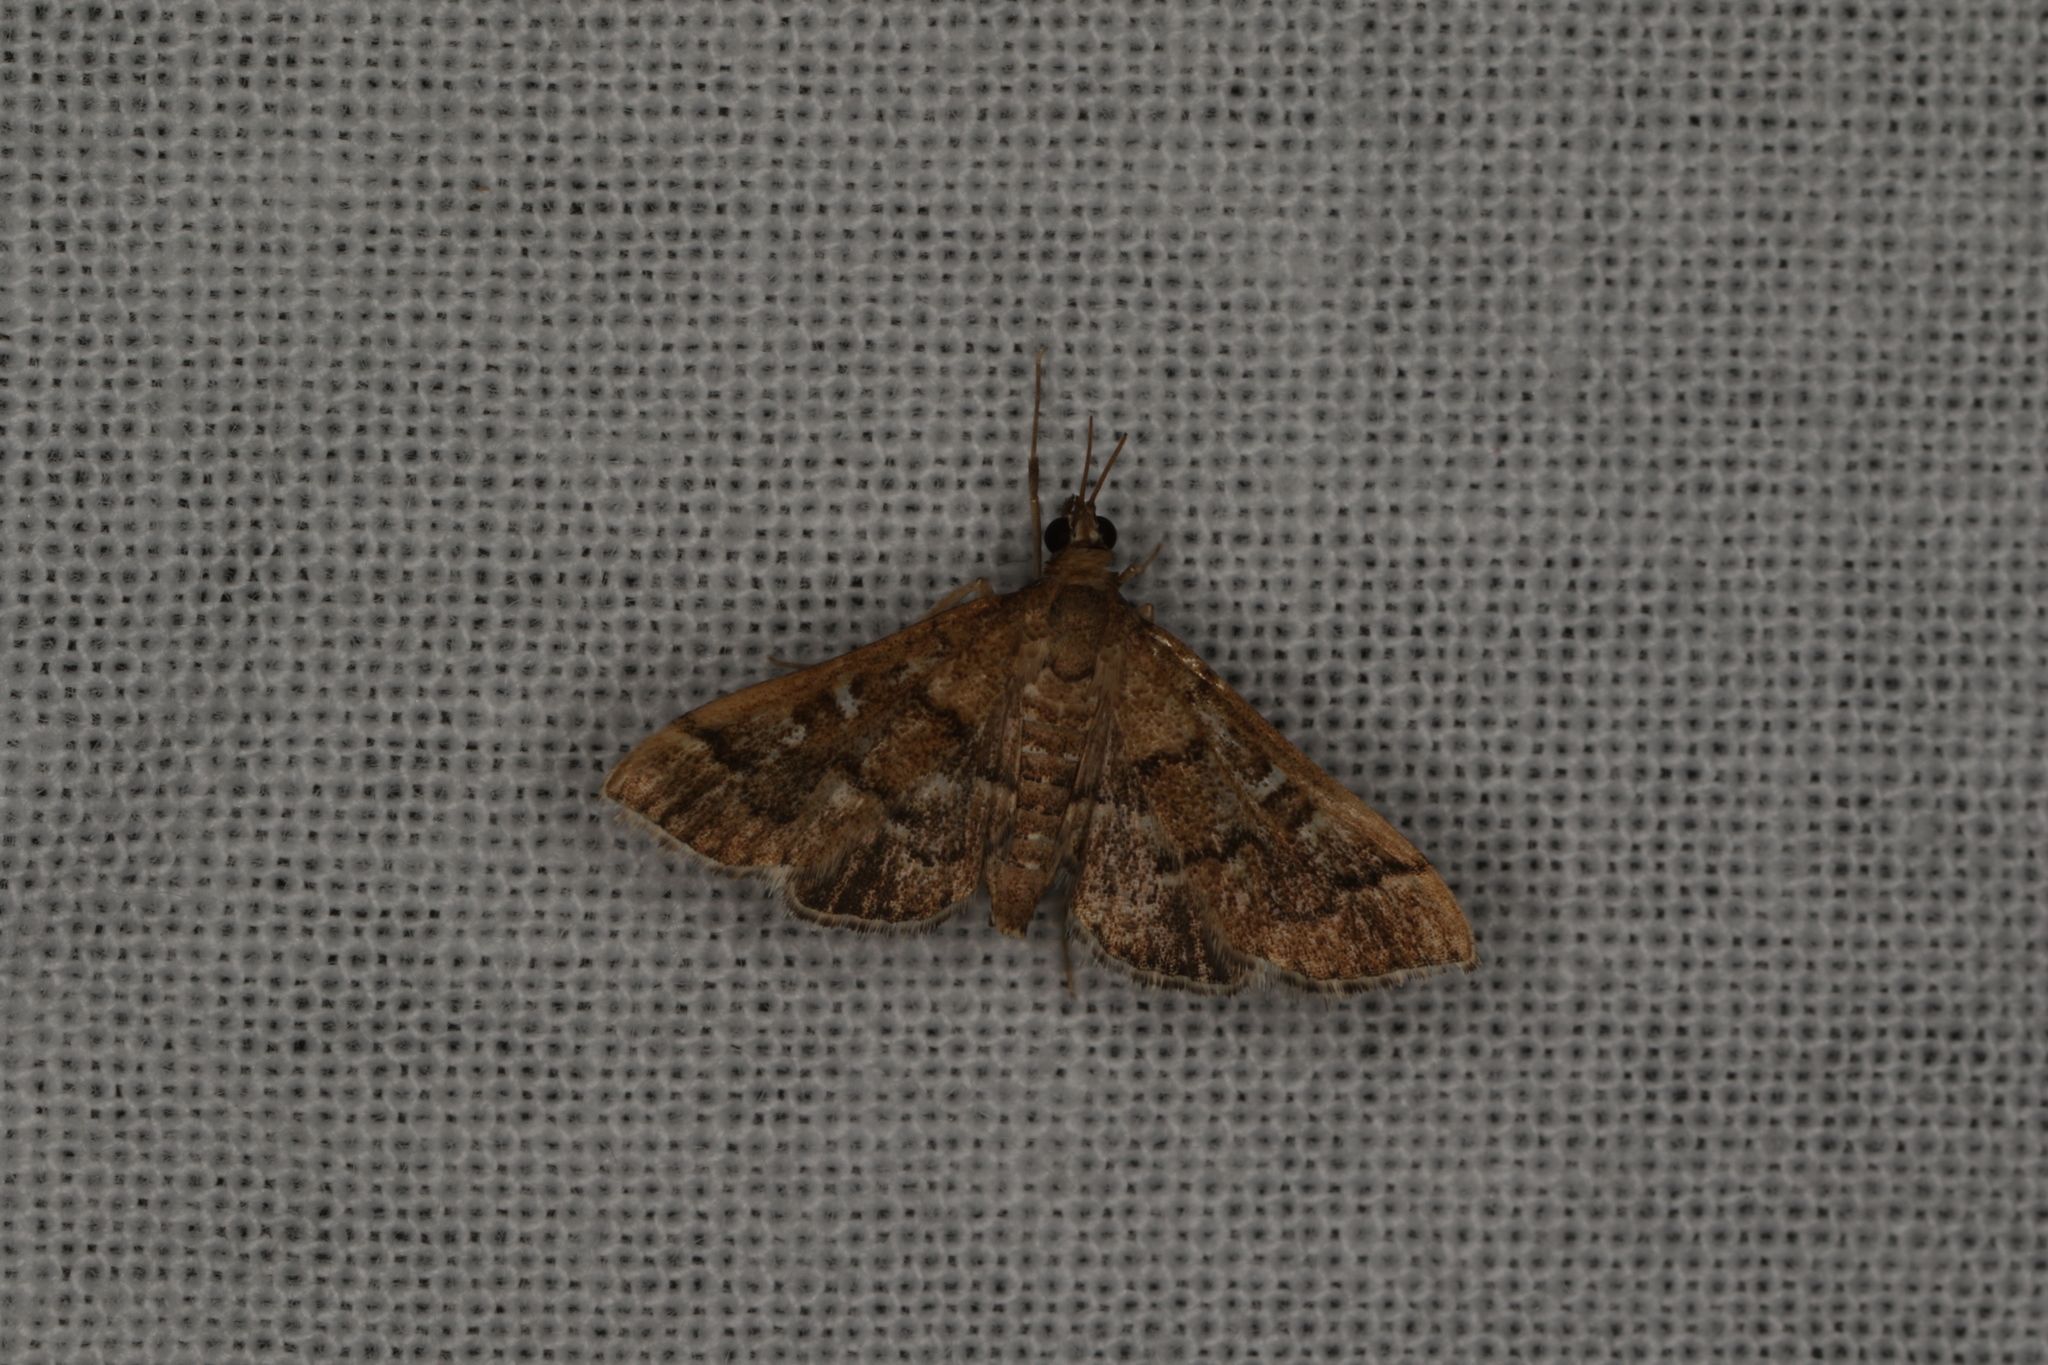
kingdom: Animalia
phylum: Arthropoda
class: Insecta
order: Lepidoptera
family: Crambidae
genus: Nacoleia
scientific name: Nacoleia rhoeoalis
